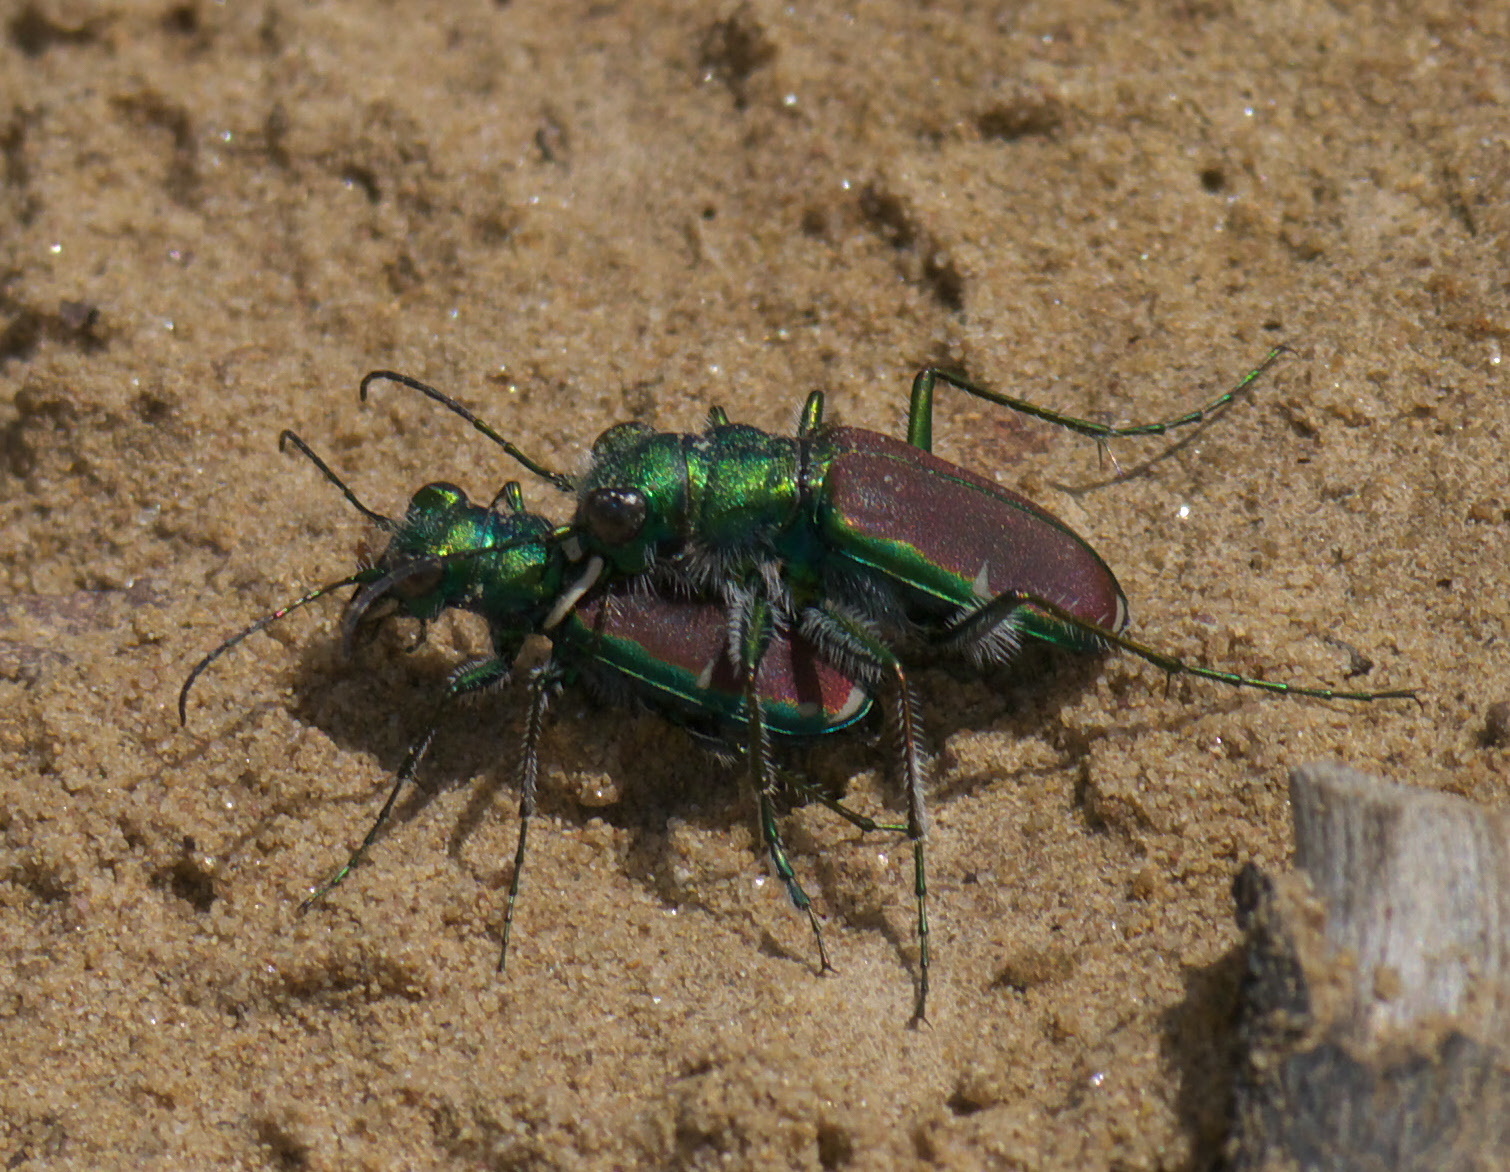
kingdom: Animalia
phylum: Arthropoda
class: Insecta
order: Coleoptera
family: Carabidae
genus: Cicindela
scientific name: Cicindela splendida
